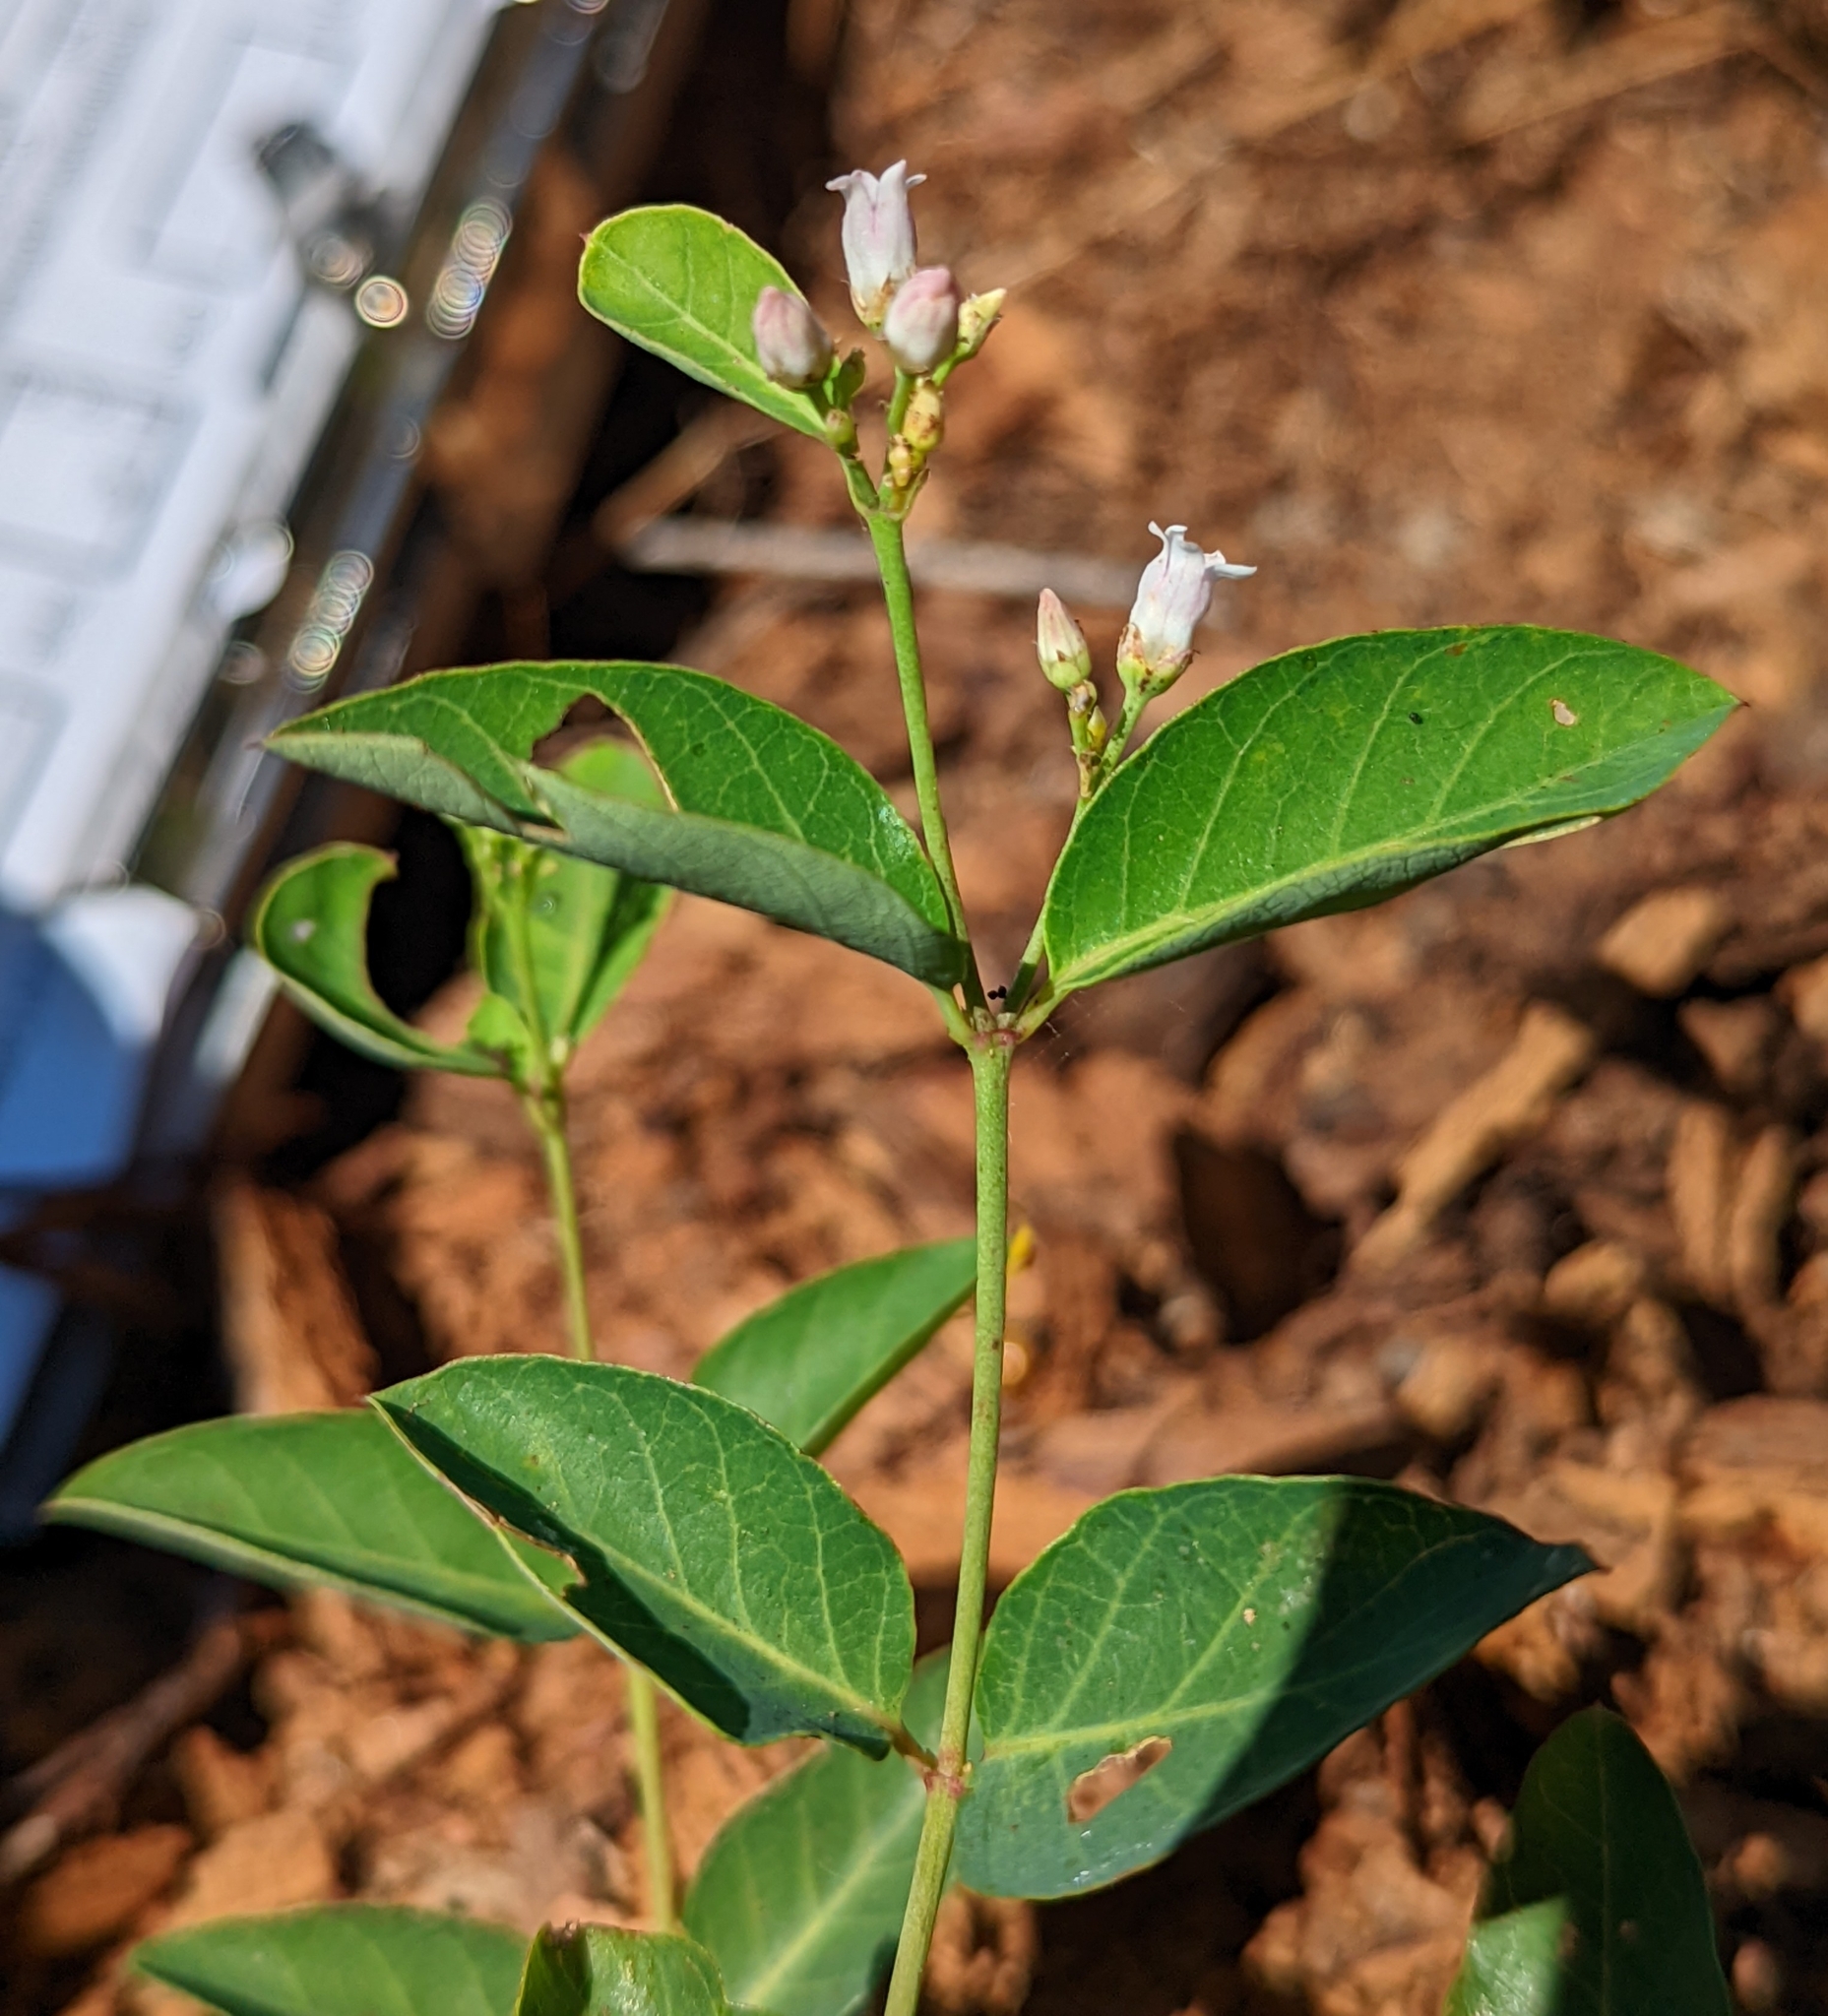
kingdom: Plantae
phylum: Tracheophyta
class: Magnoliopsida
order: Gentianales
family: Apocynaceae
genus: Apocynum
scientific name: Apocynum androsaemifolium
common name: Spreading dogbane
